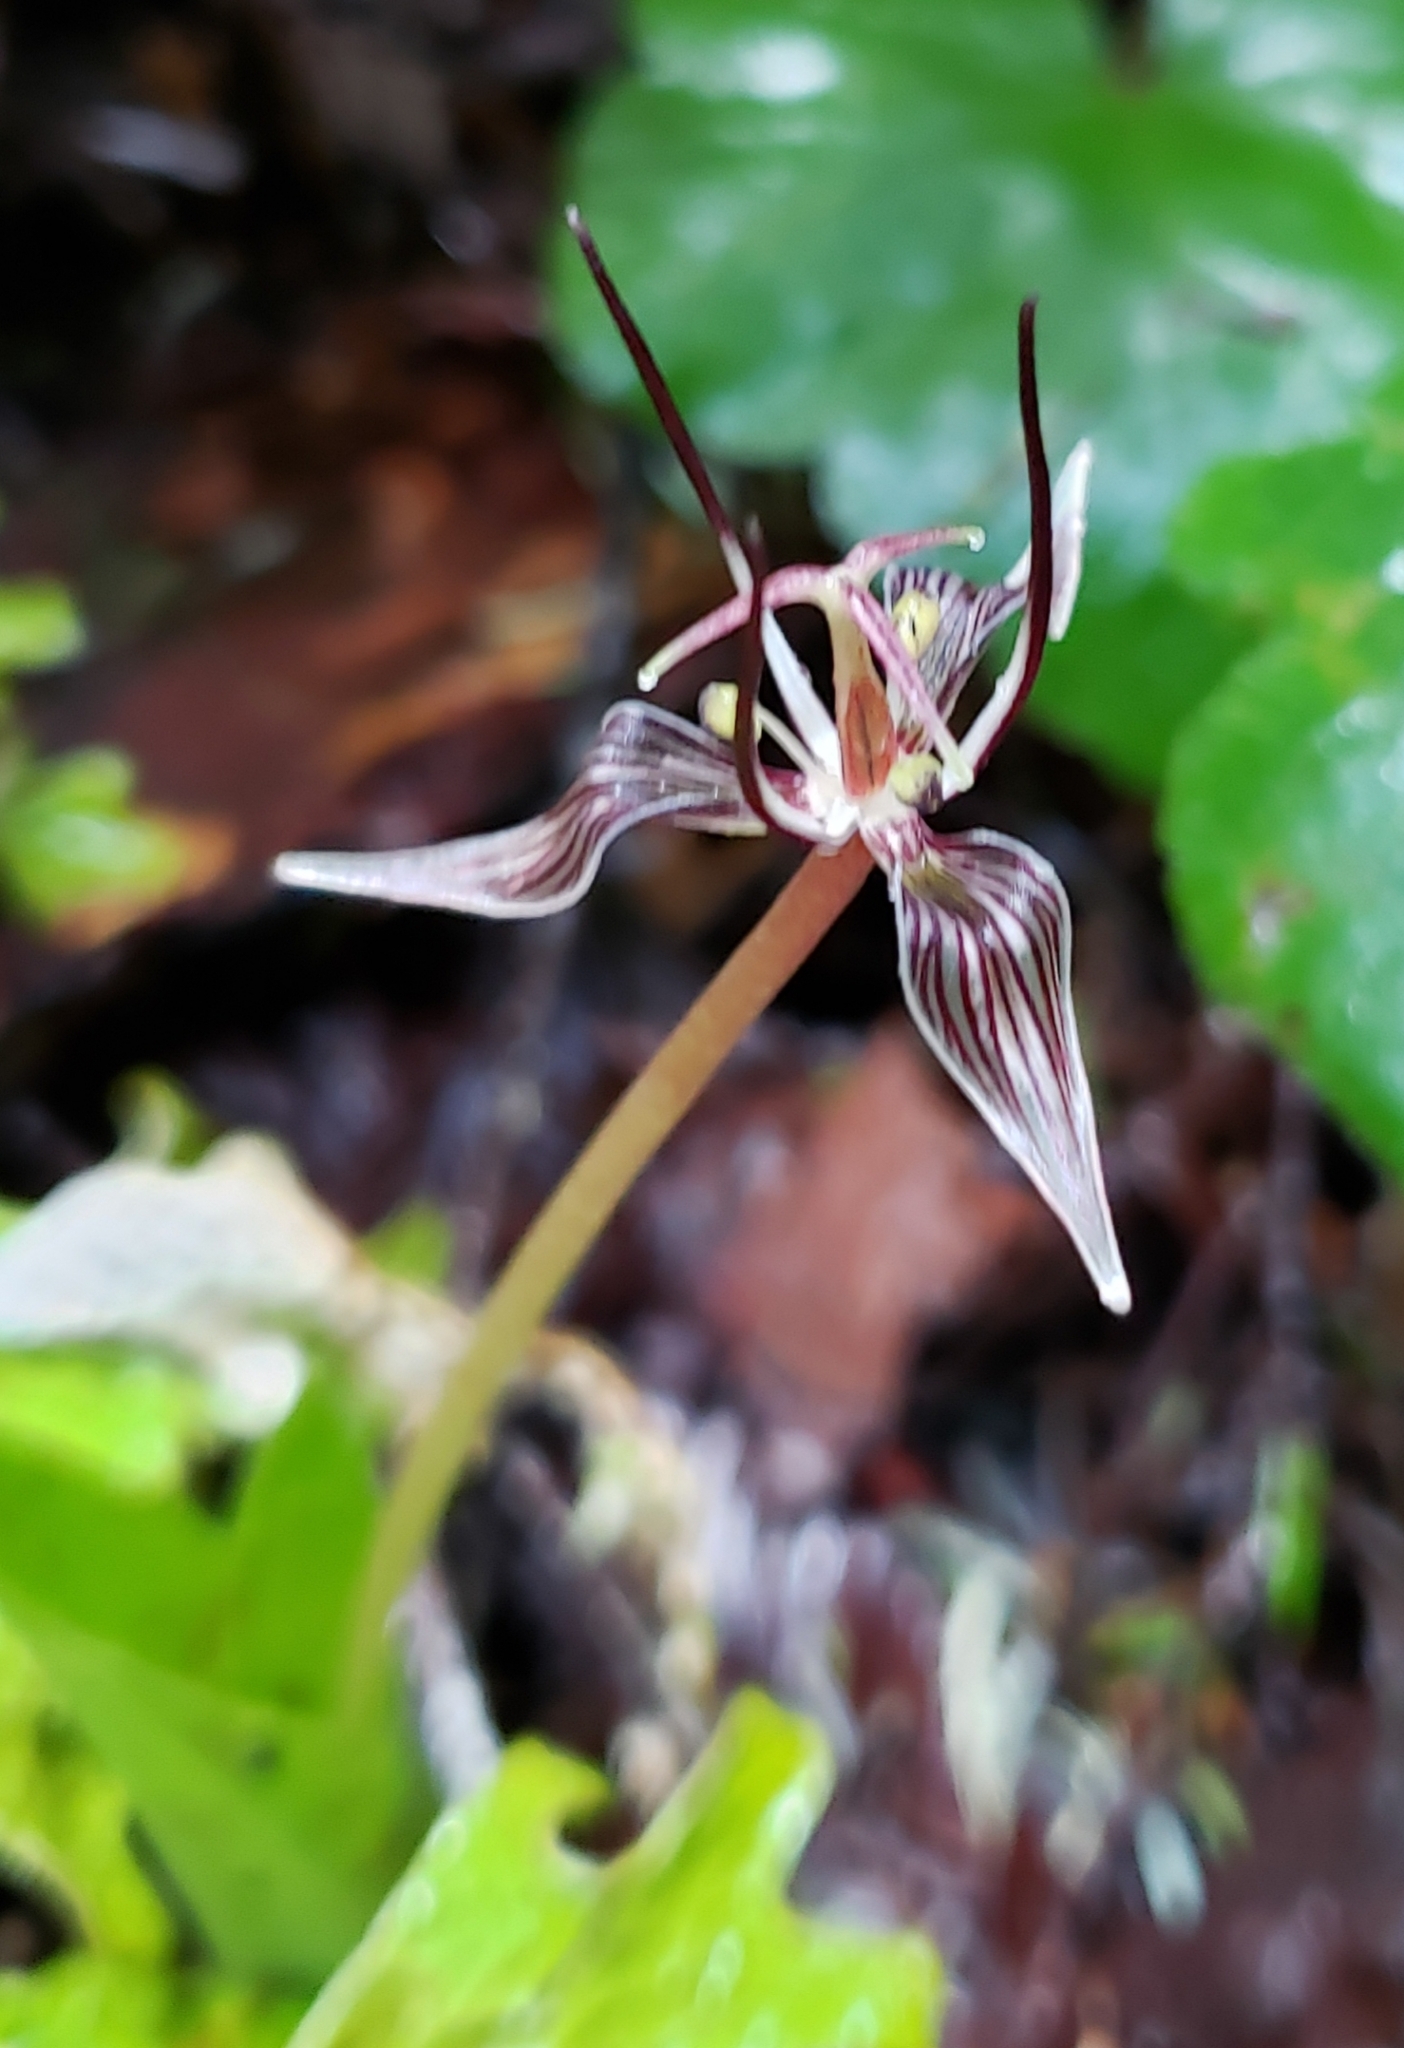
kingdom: Plantae
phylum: Tracheophyta
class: Liliopsida
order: Liliales
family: Liliaceae
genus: Scoliopus
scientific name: Scoliopus bigelovii
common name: Foetid adder's-tongue
